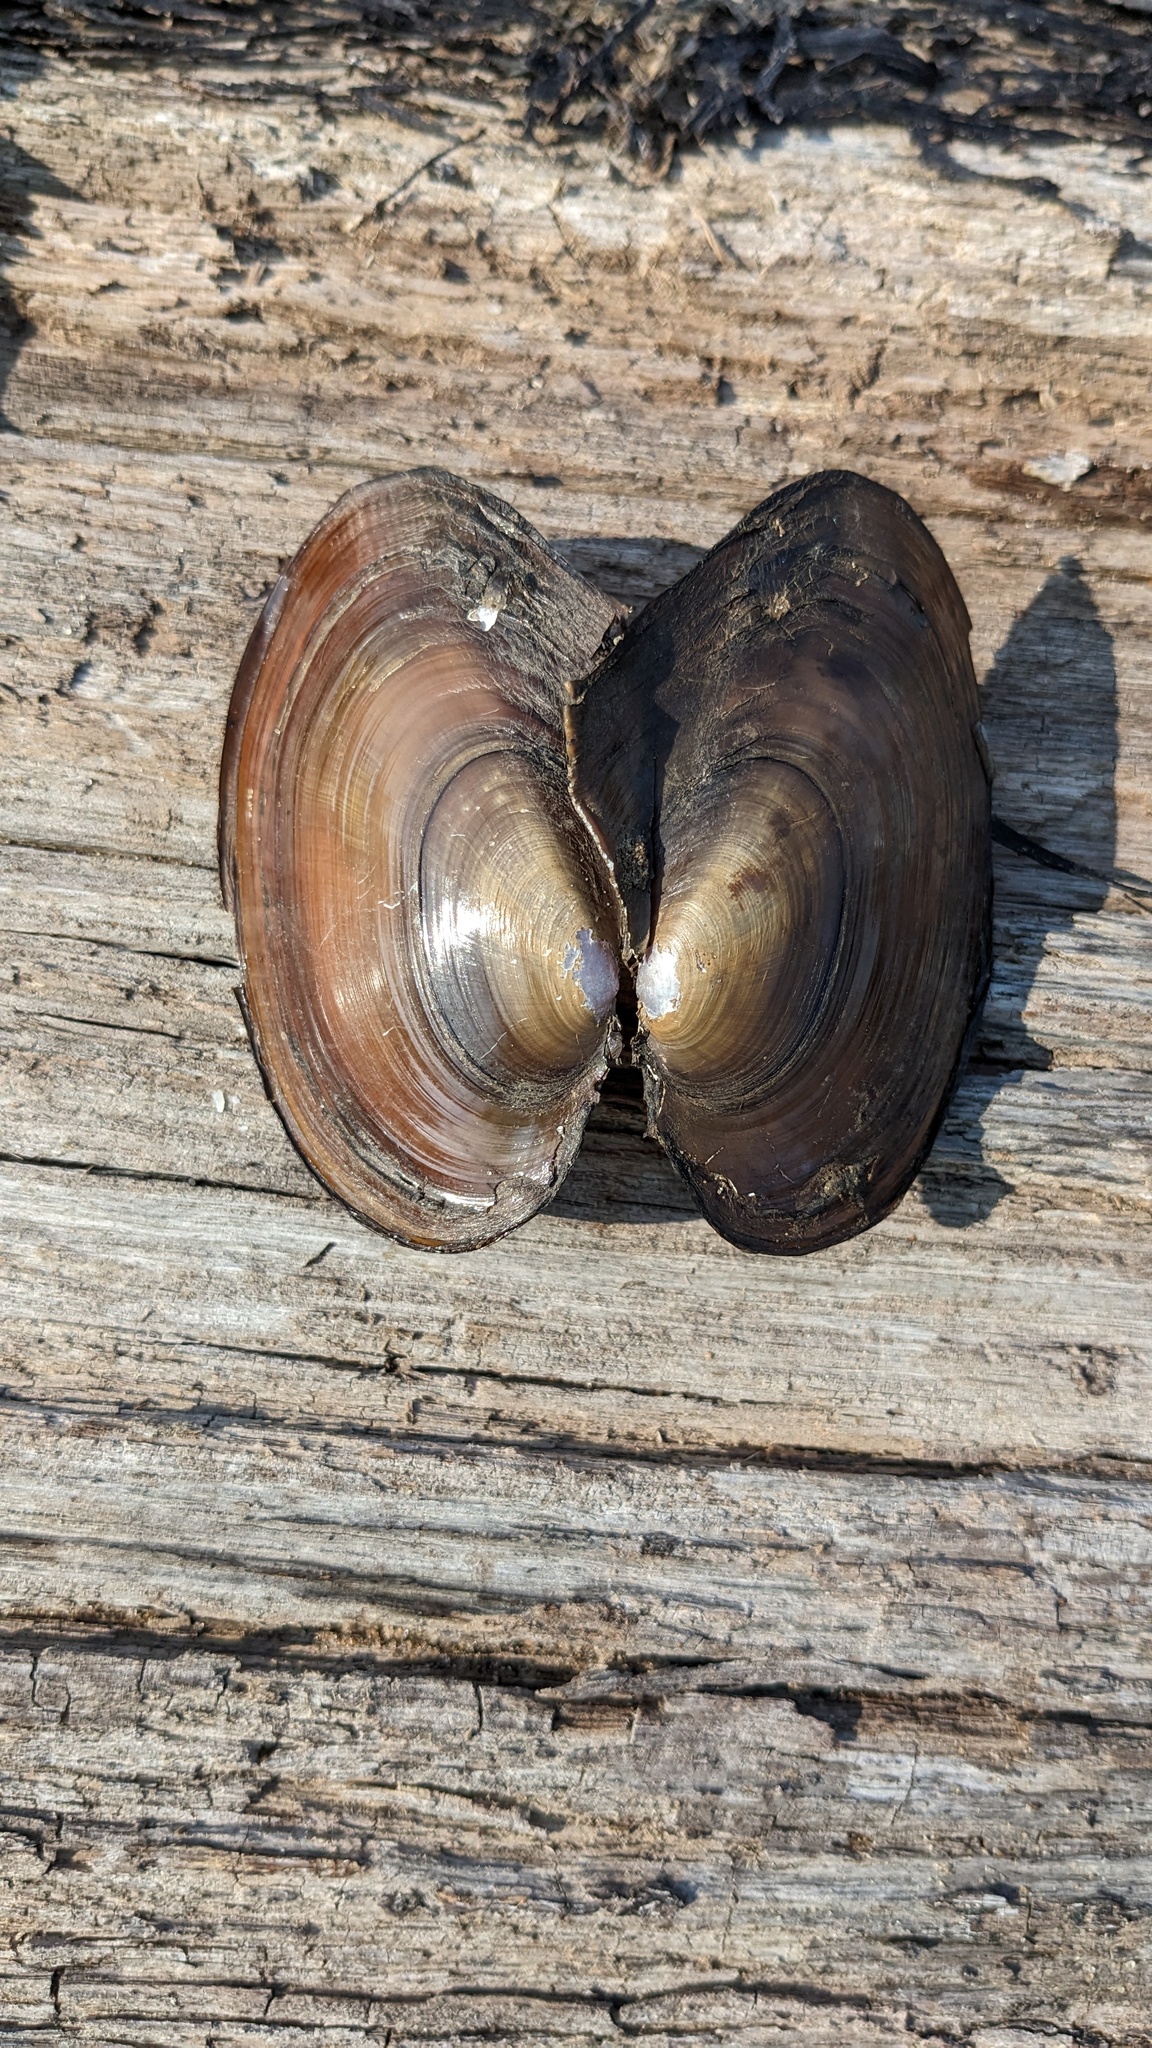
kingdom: Animalia
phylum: Mollusca
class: Bivalvia
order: Unionida
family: Unionidae
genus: Potamilus
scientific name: Potamilus ohiensis
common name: Pink papershell
